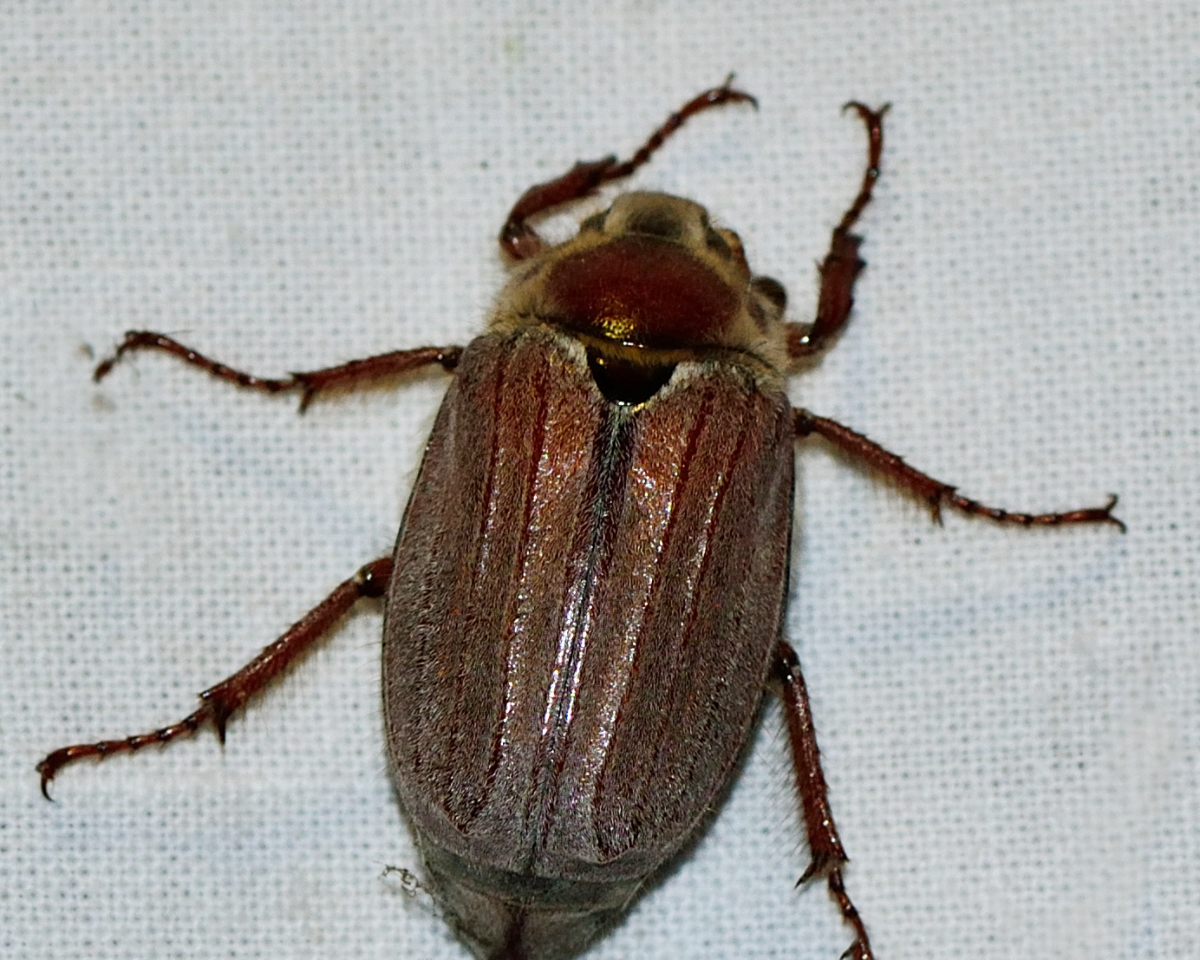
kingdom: Animalia
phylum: Arthropoda
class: Insecta
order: Coleoptera
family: Scarabaeidae
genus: Melolontha
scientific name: Melolontha hippocastani
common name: Chestnut cockchafer
